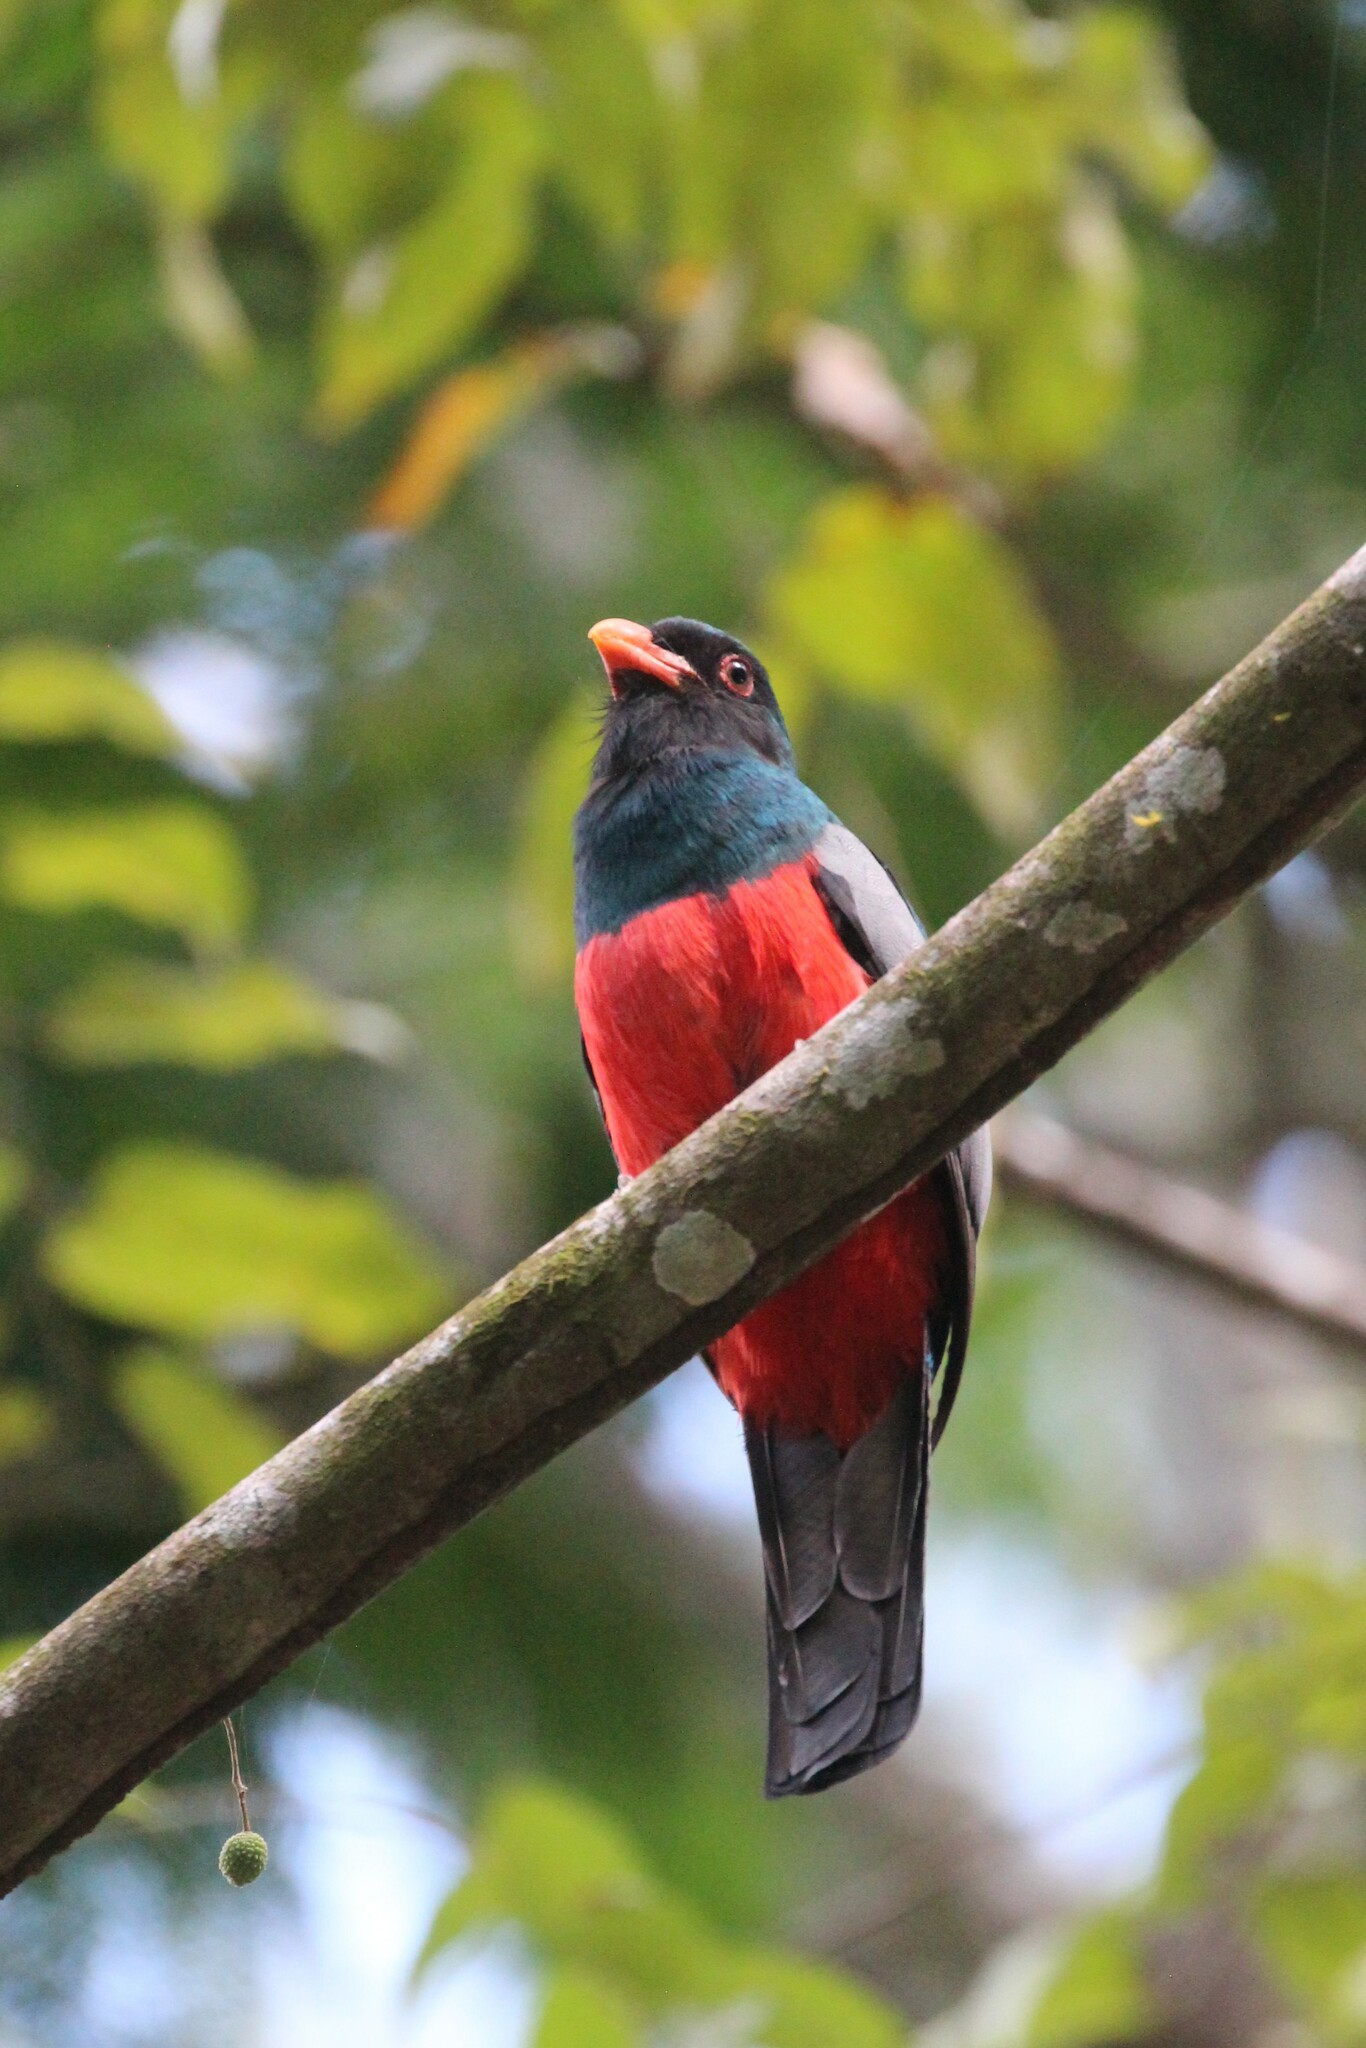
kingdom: Animalia
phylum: Chordata
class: Aves
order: Trogoniformes
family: Trogonidae
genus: Trogon
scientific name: Trogon massena
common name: Slaty-tailed trogon
